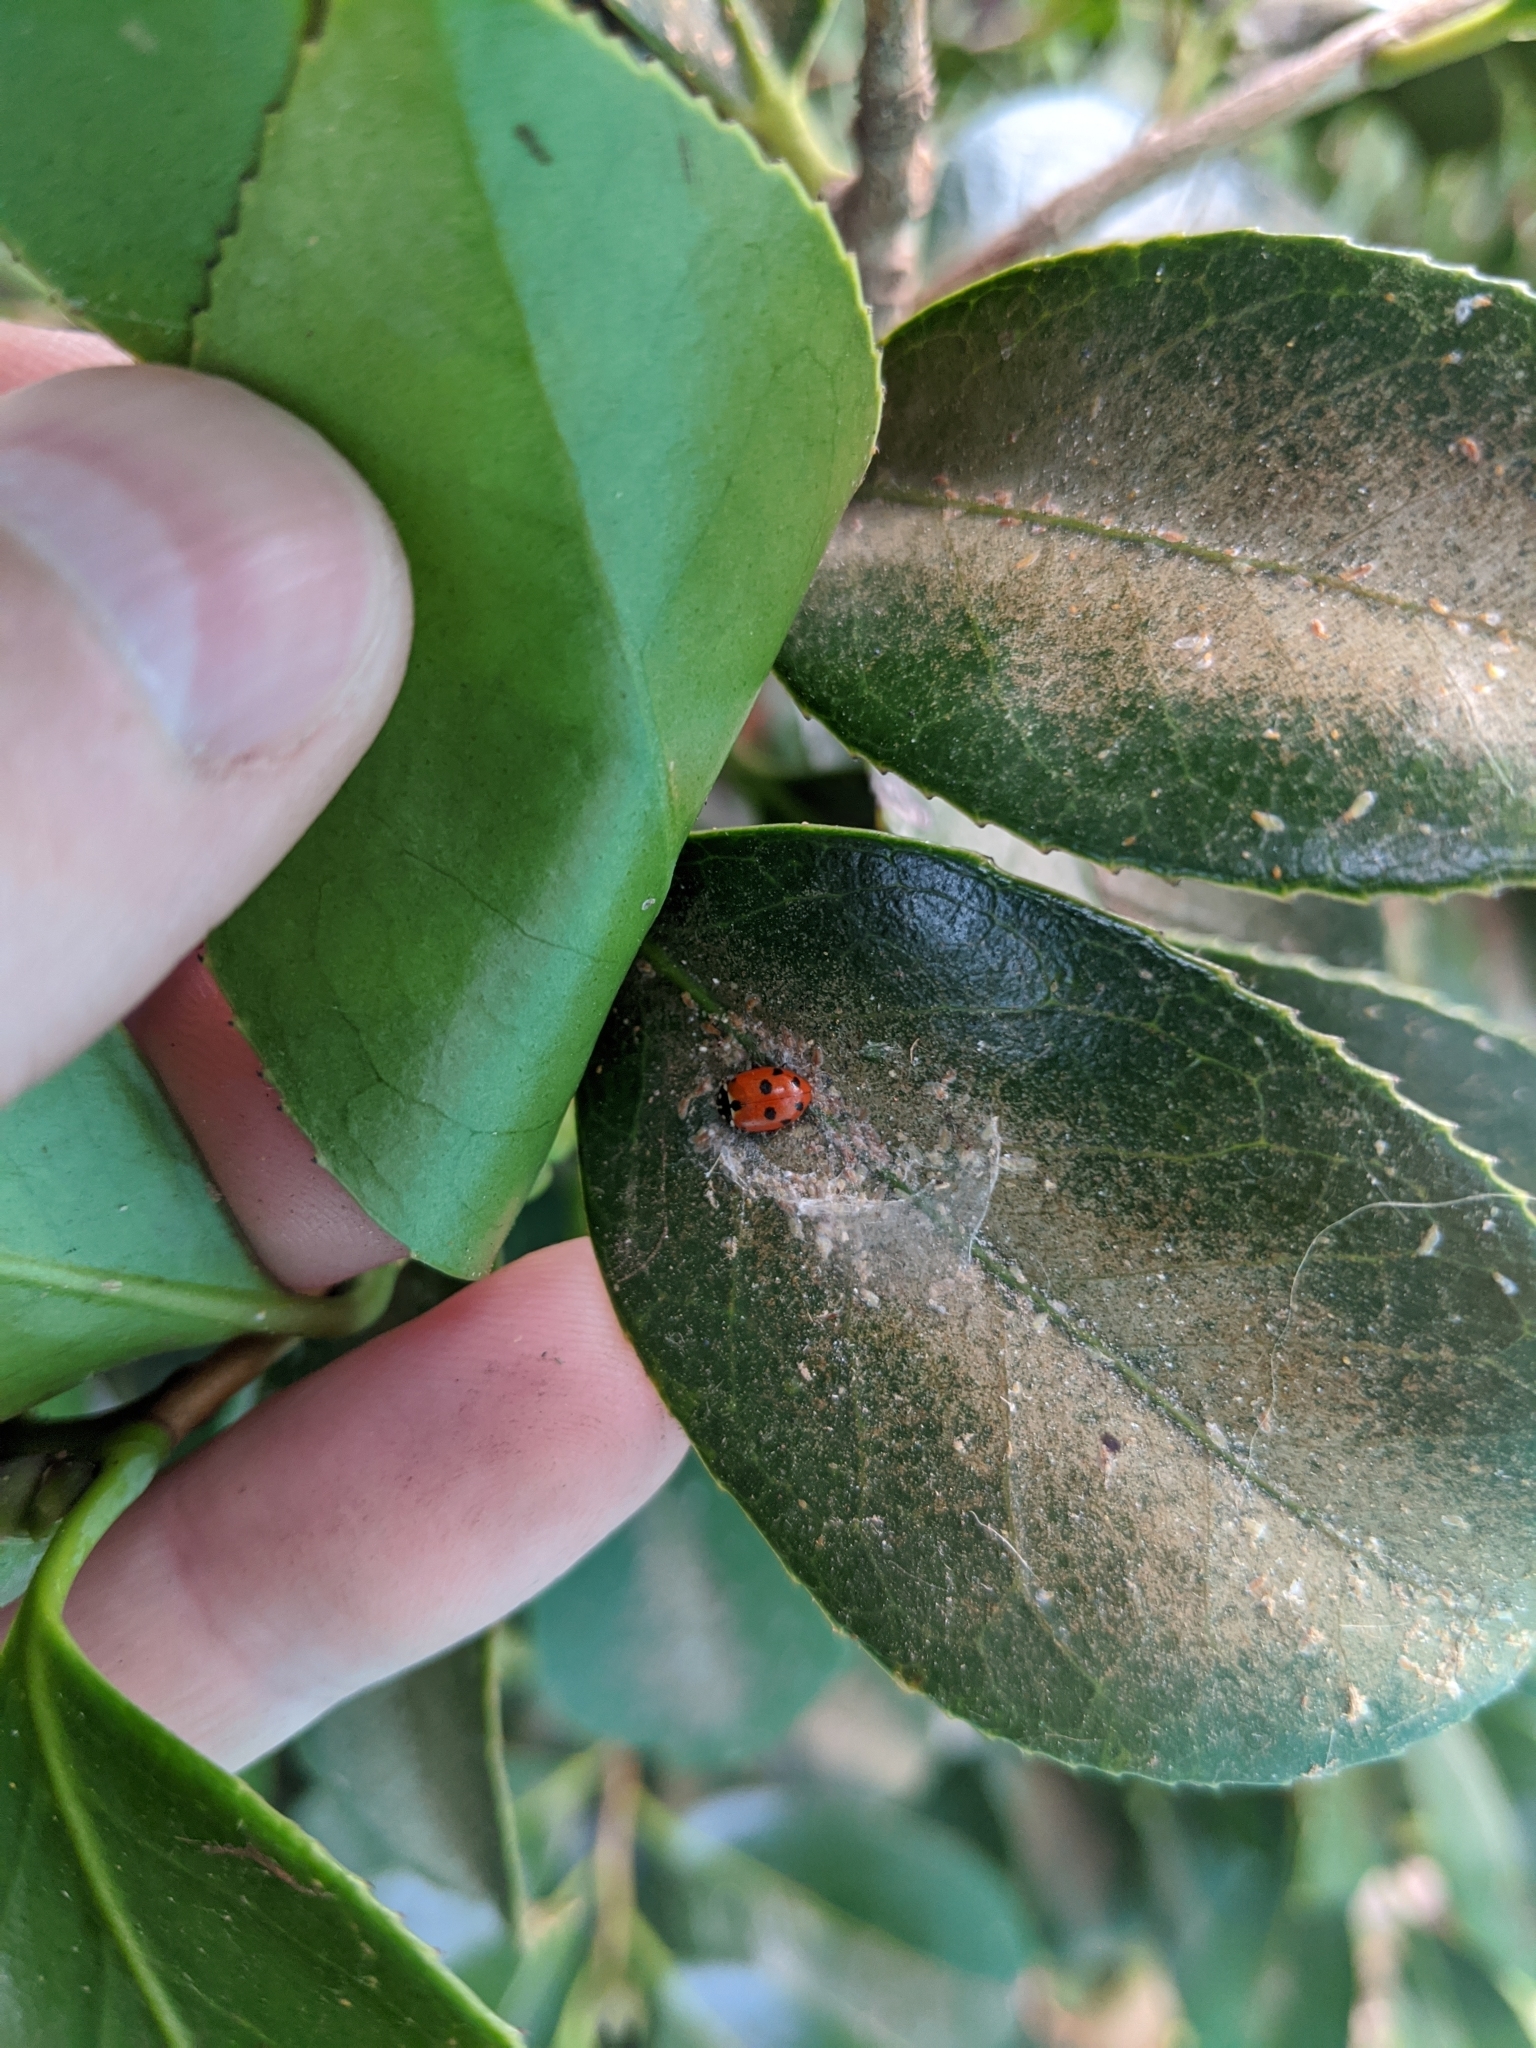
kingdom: Animalia
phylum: Arthropoda
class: Insecta
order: Coleoptera
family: Coccinellidae
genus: Hippodamia
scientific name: Hippodamia variegata
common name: Ladybird beetle
